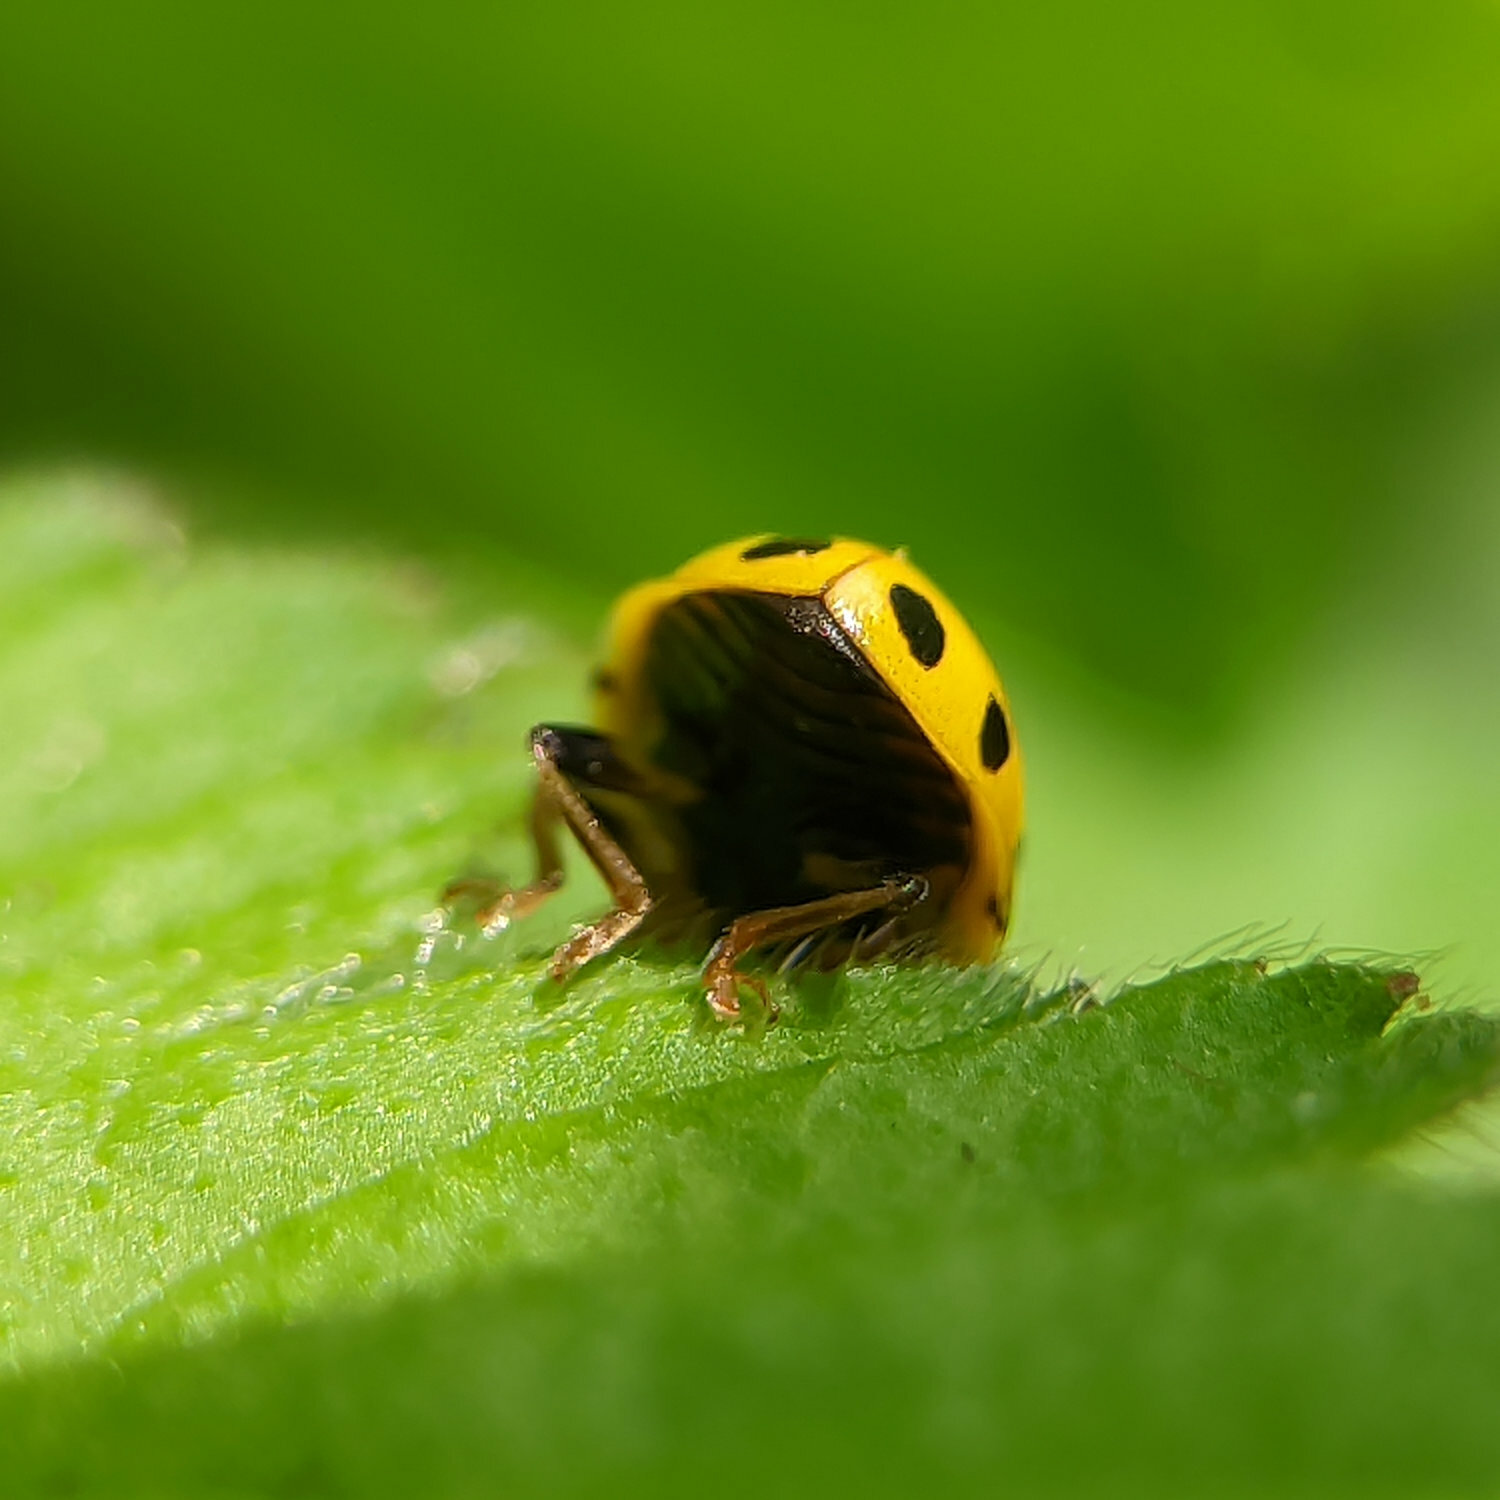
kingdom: Animalia
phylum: Arthropoda
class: Insecta
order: Coleoptera
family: Coccinellidae
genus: Psyllobora
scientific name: Psyllobora vigintiduopunctata
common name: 22-spot ladybird
